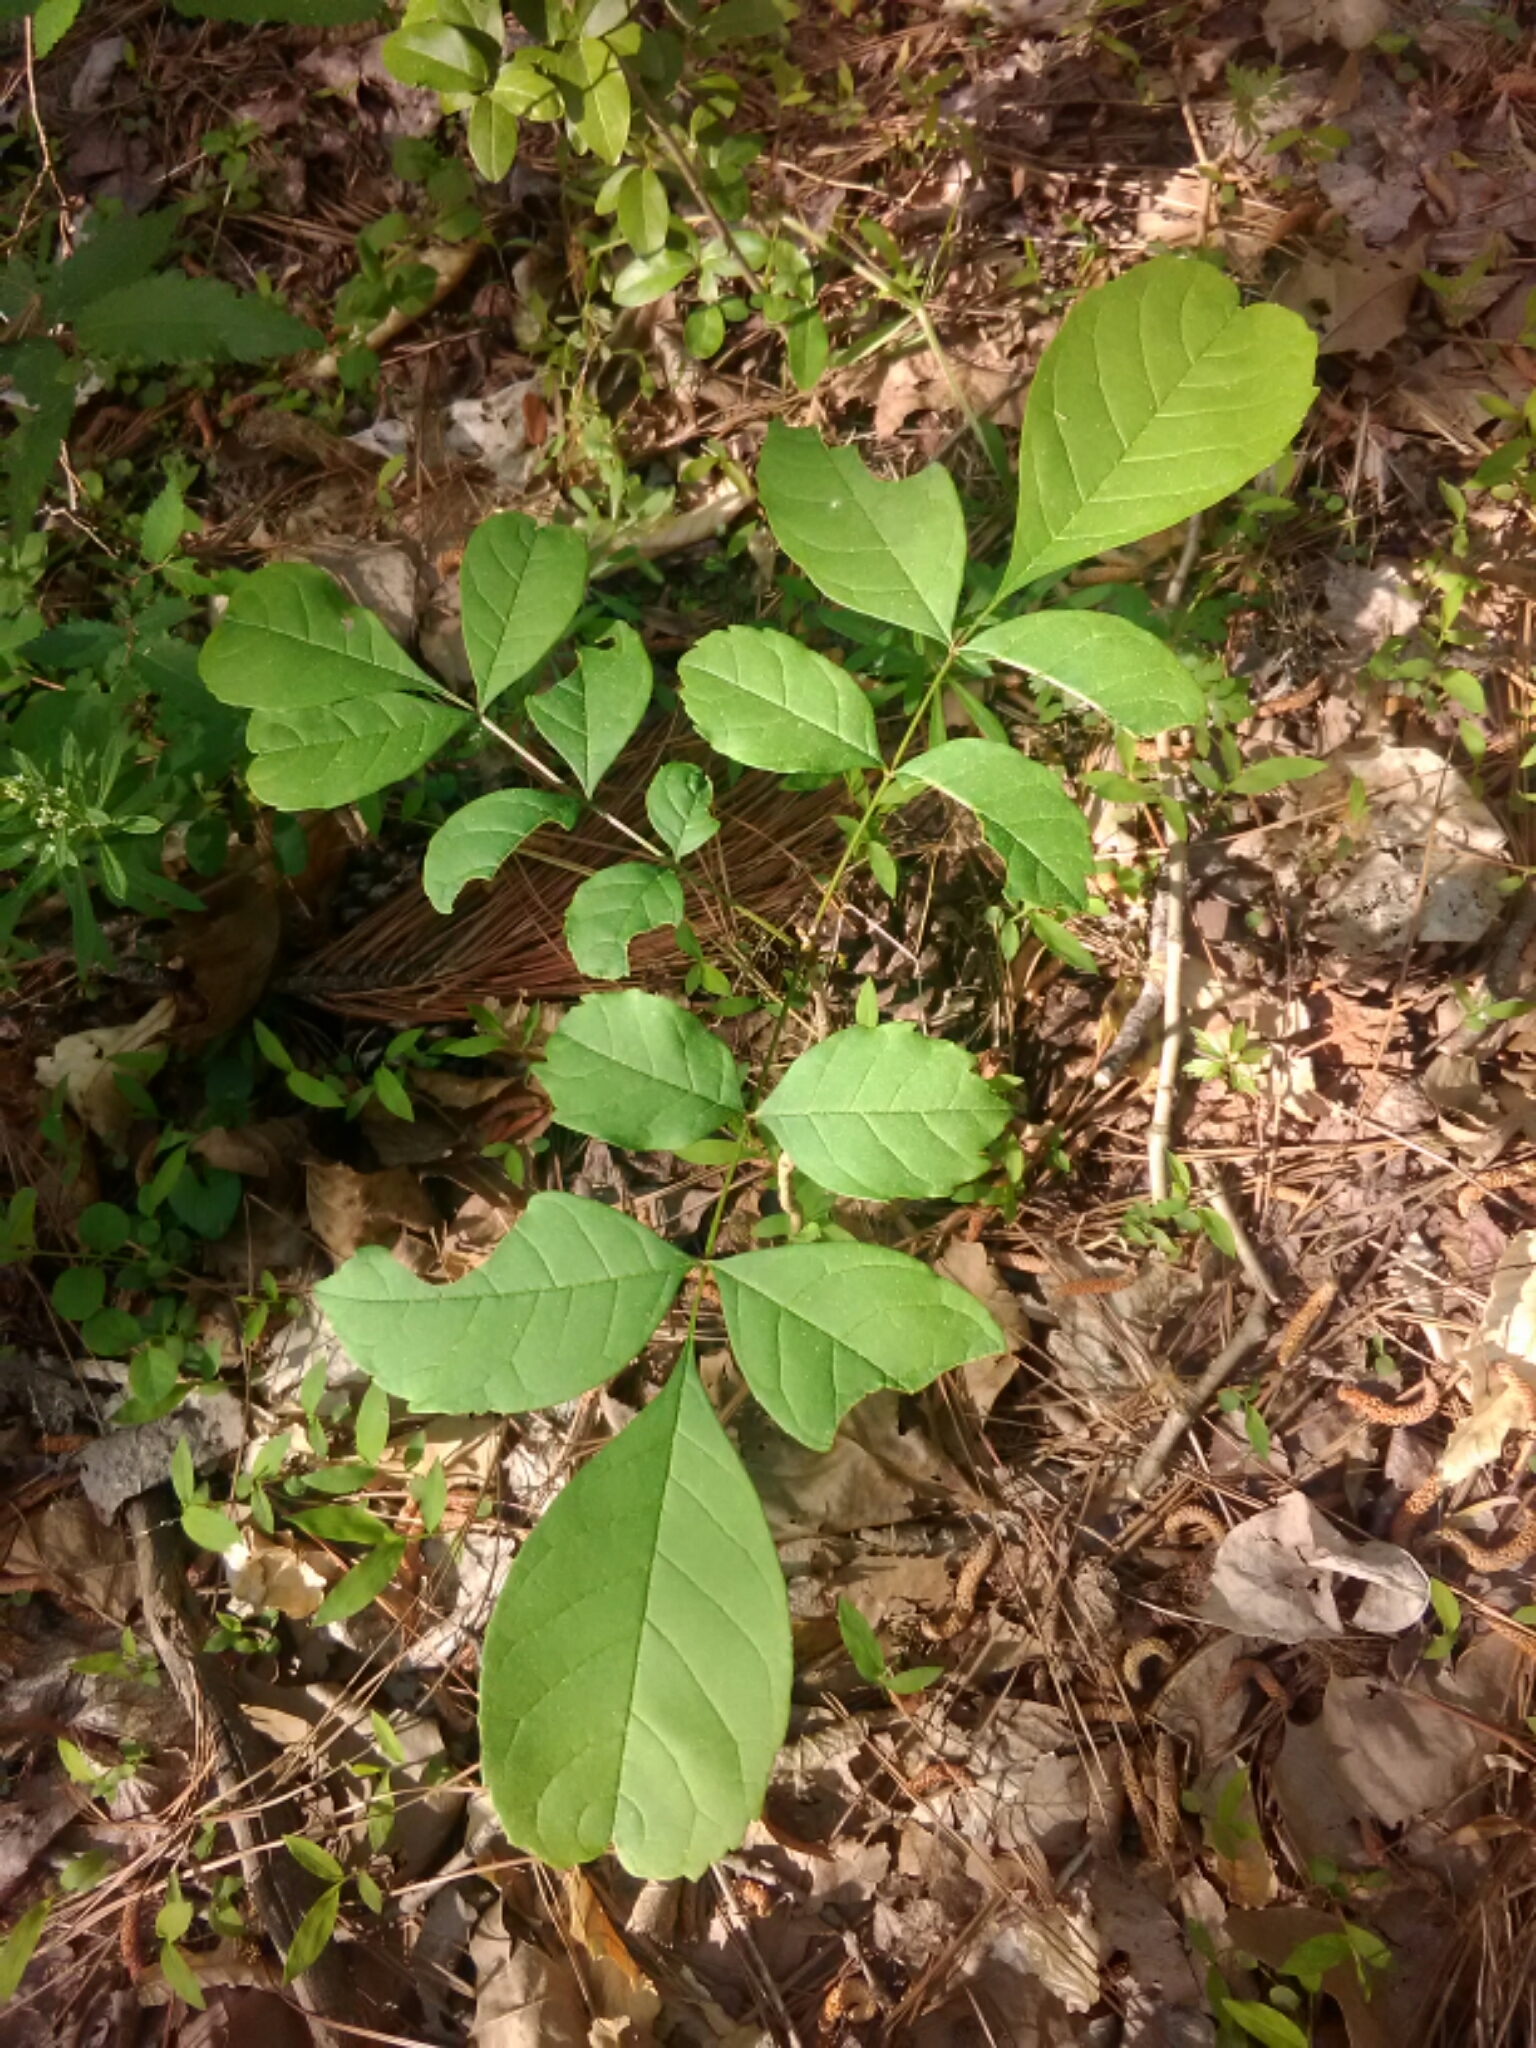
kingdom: Plantae
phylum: Tracheophyta
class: Magnoliopsida
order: Lamiales
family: Oleaceae
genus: Fraxinus
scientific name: Fraxinus americana
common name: White ash
